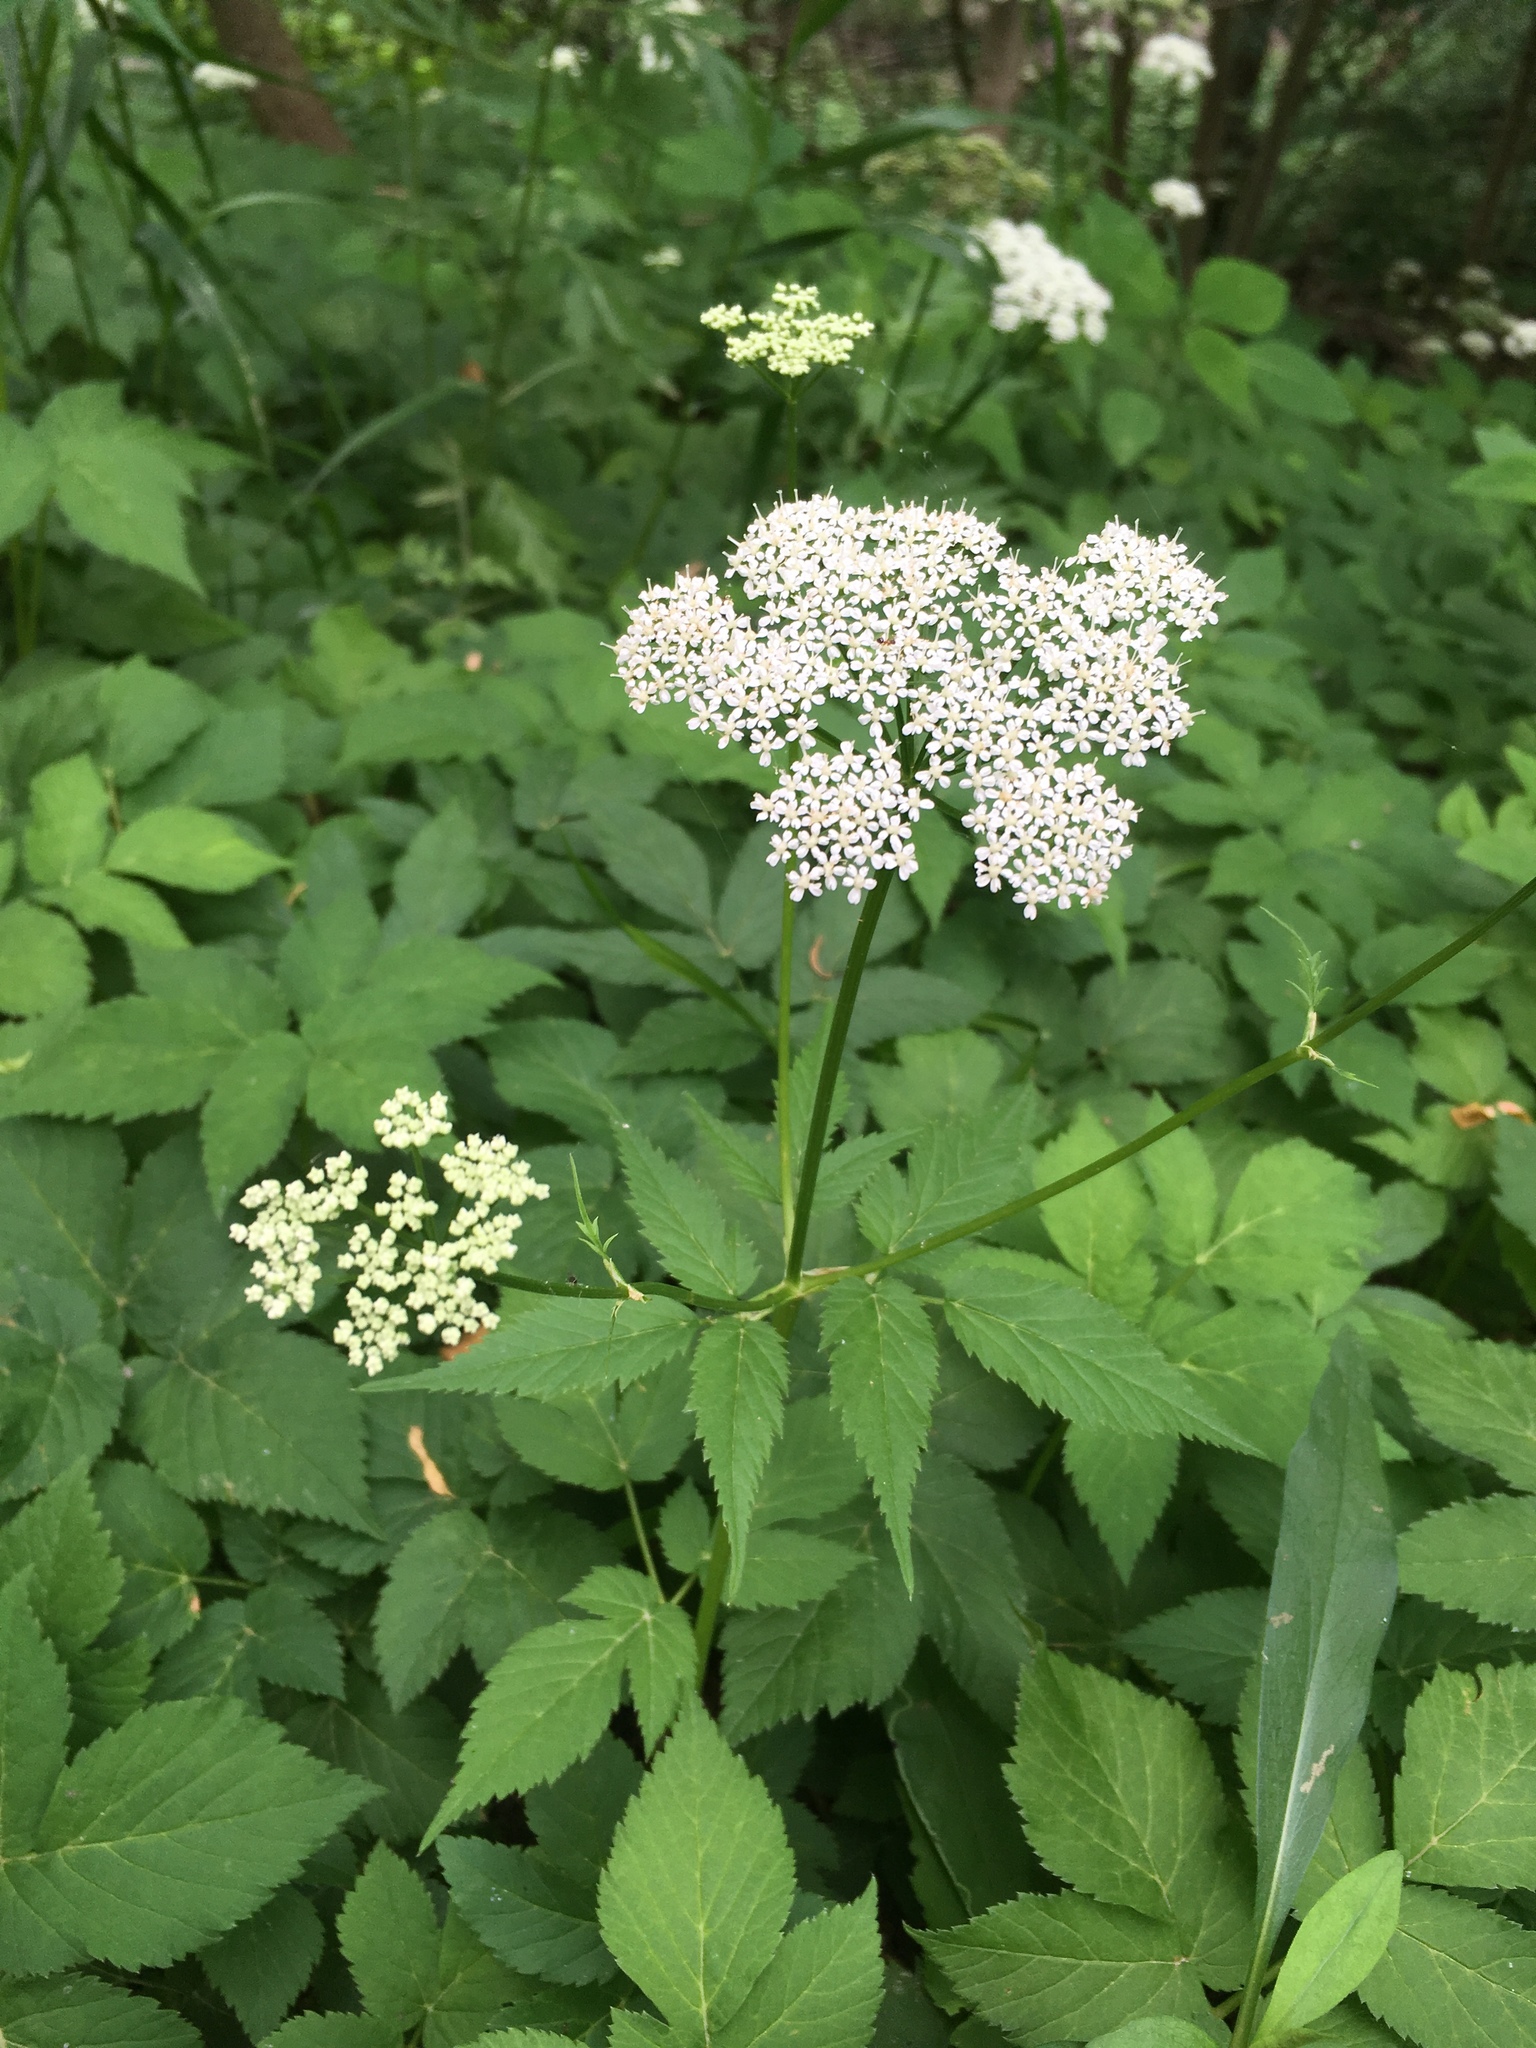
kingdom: Plantae
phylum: Tracheophyta
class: Magnoliopsida
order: Apiales
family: Apiaceae
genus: Aegopodium
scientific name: Aegopodium podagraria
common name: Ground-elder
